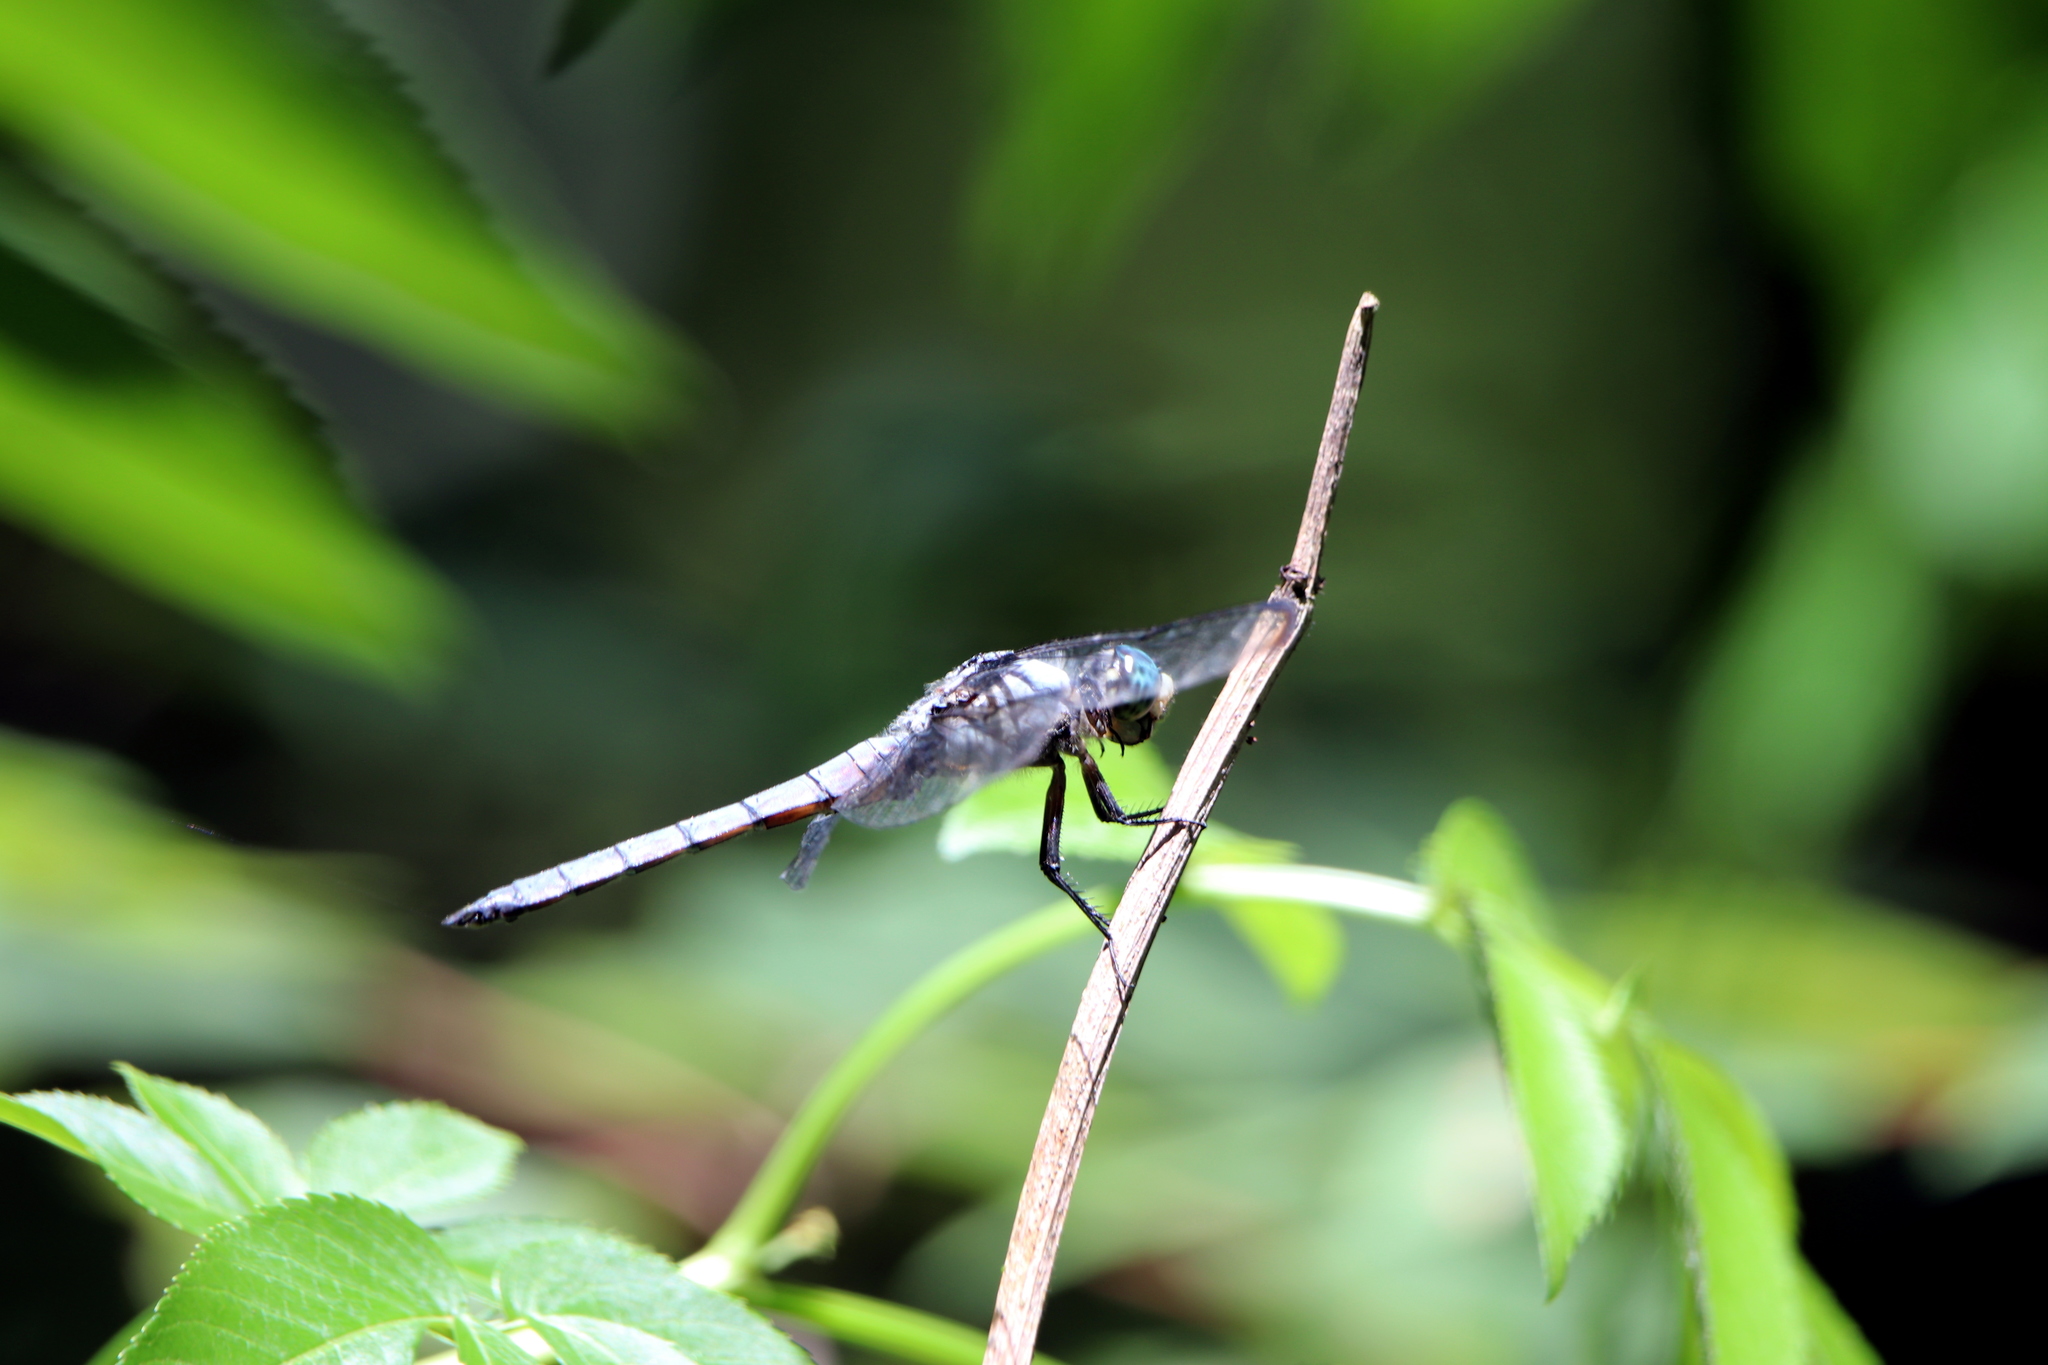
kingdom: Animalia
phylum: Arthropoda
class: Insecta
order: Odonata
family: Libellulidae
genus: Libellula
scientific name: Libellula vibrans
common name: Great blue skimmer
